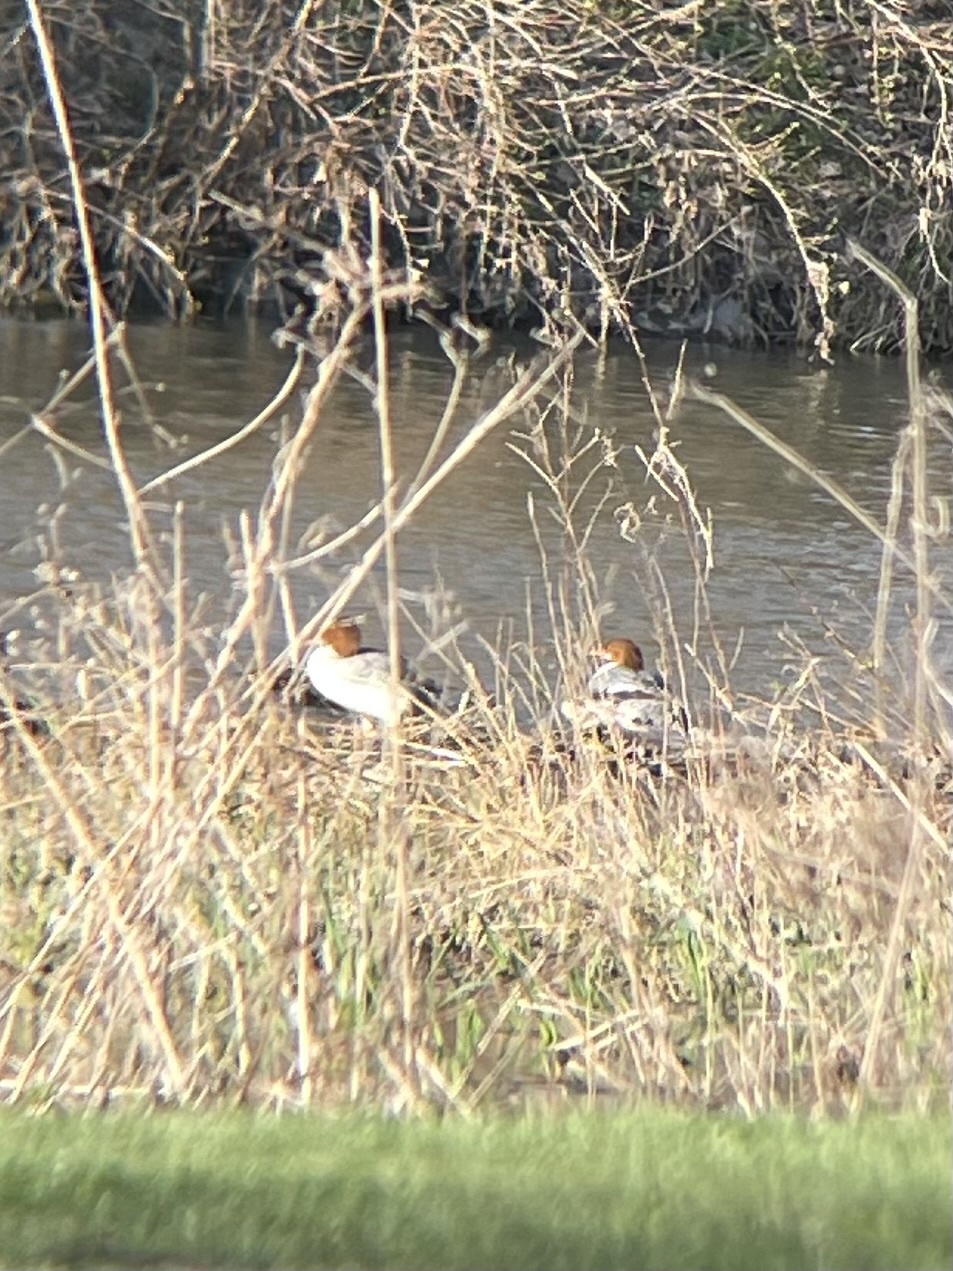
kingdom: Animalia
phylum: Chordata
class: Aves
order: Anseriformes
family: Anatidae
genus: Mergus
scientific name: Mergus merganser
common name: Common merganser
